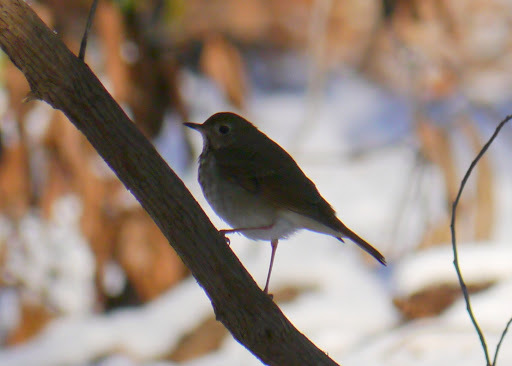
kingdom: Animalia
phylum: Chordata
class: Aves
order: Passeriformes
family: Turdidae
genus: Catharus
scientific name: Catharus guttatus
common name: Hermit thrush
